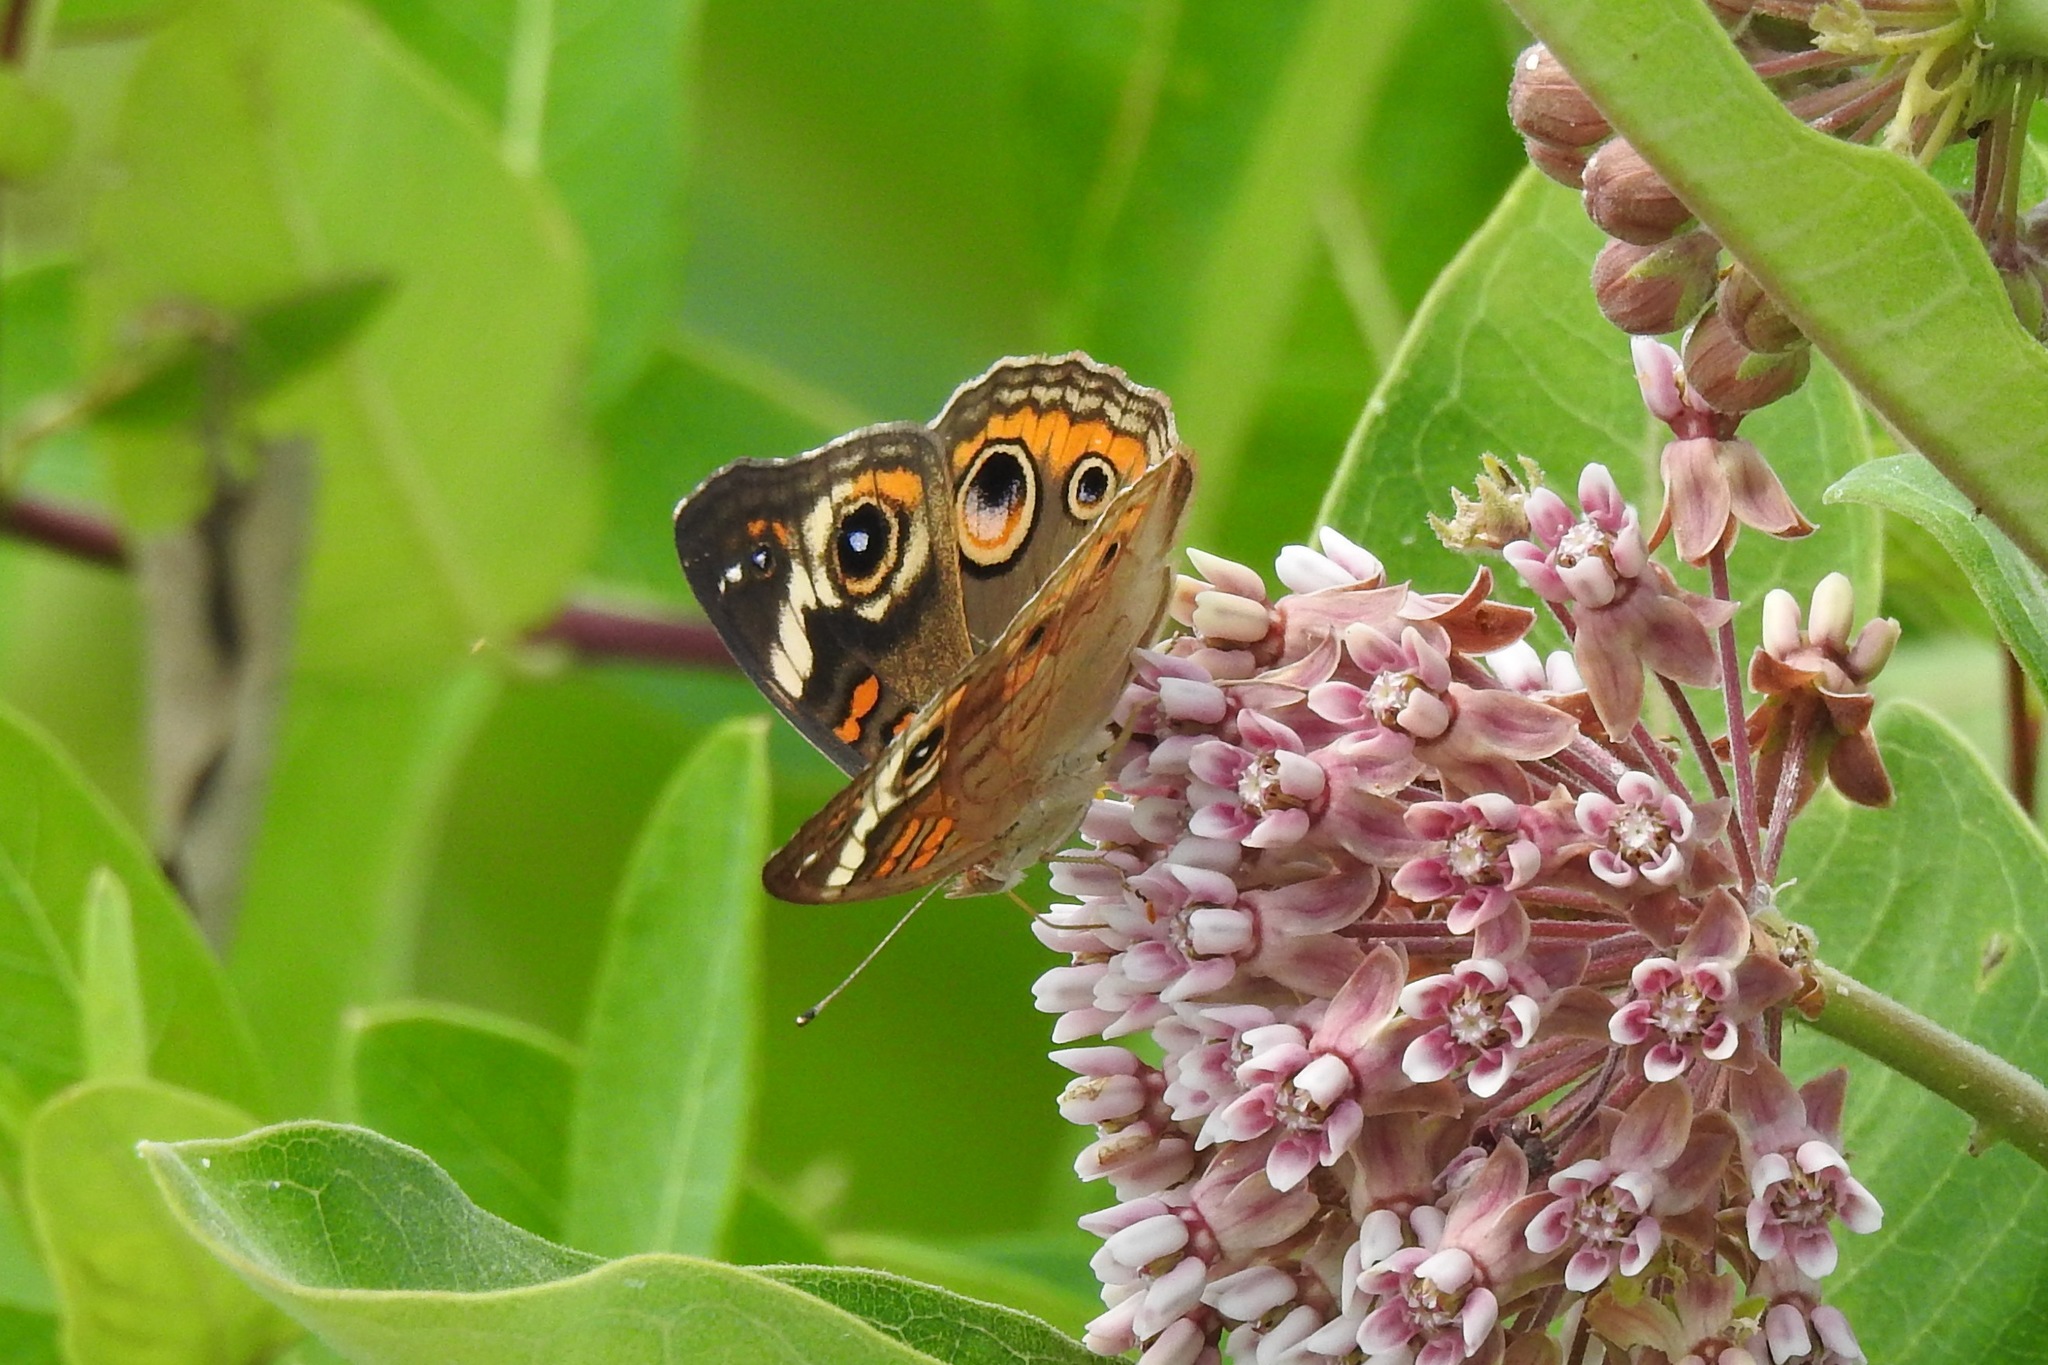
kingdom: Animalia
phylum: Arthropoda
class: Insecta
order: Lepidoptera
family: Nymphalidae
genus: Junonia
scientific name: Junonia coenia
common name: Common buckeye
